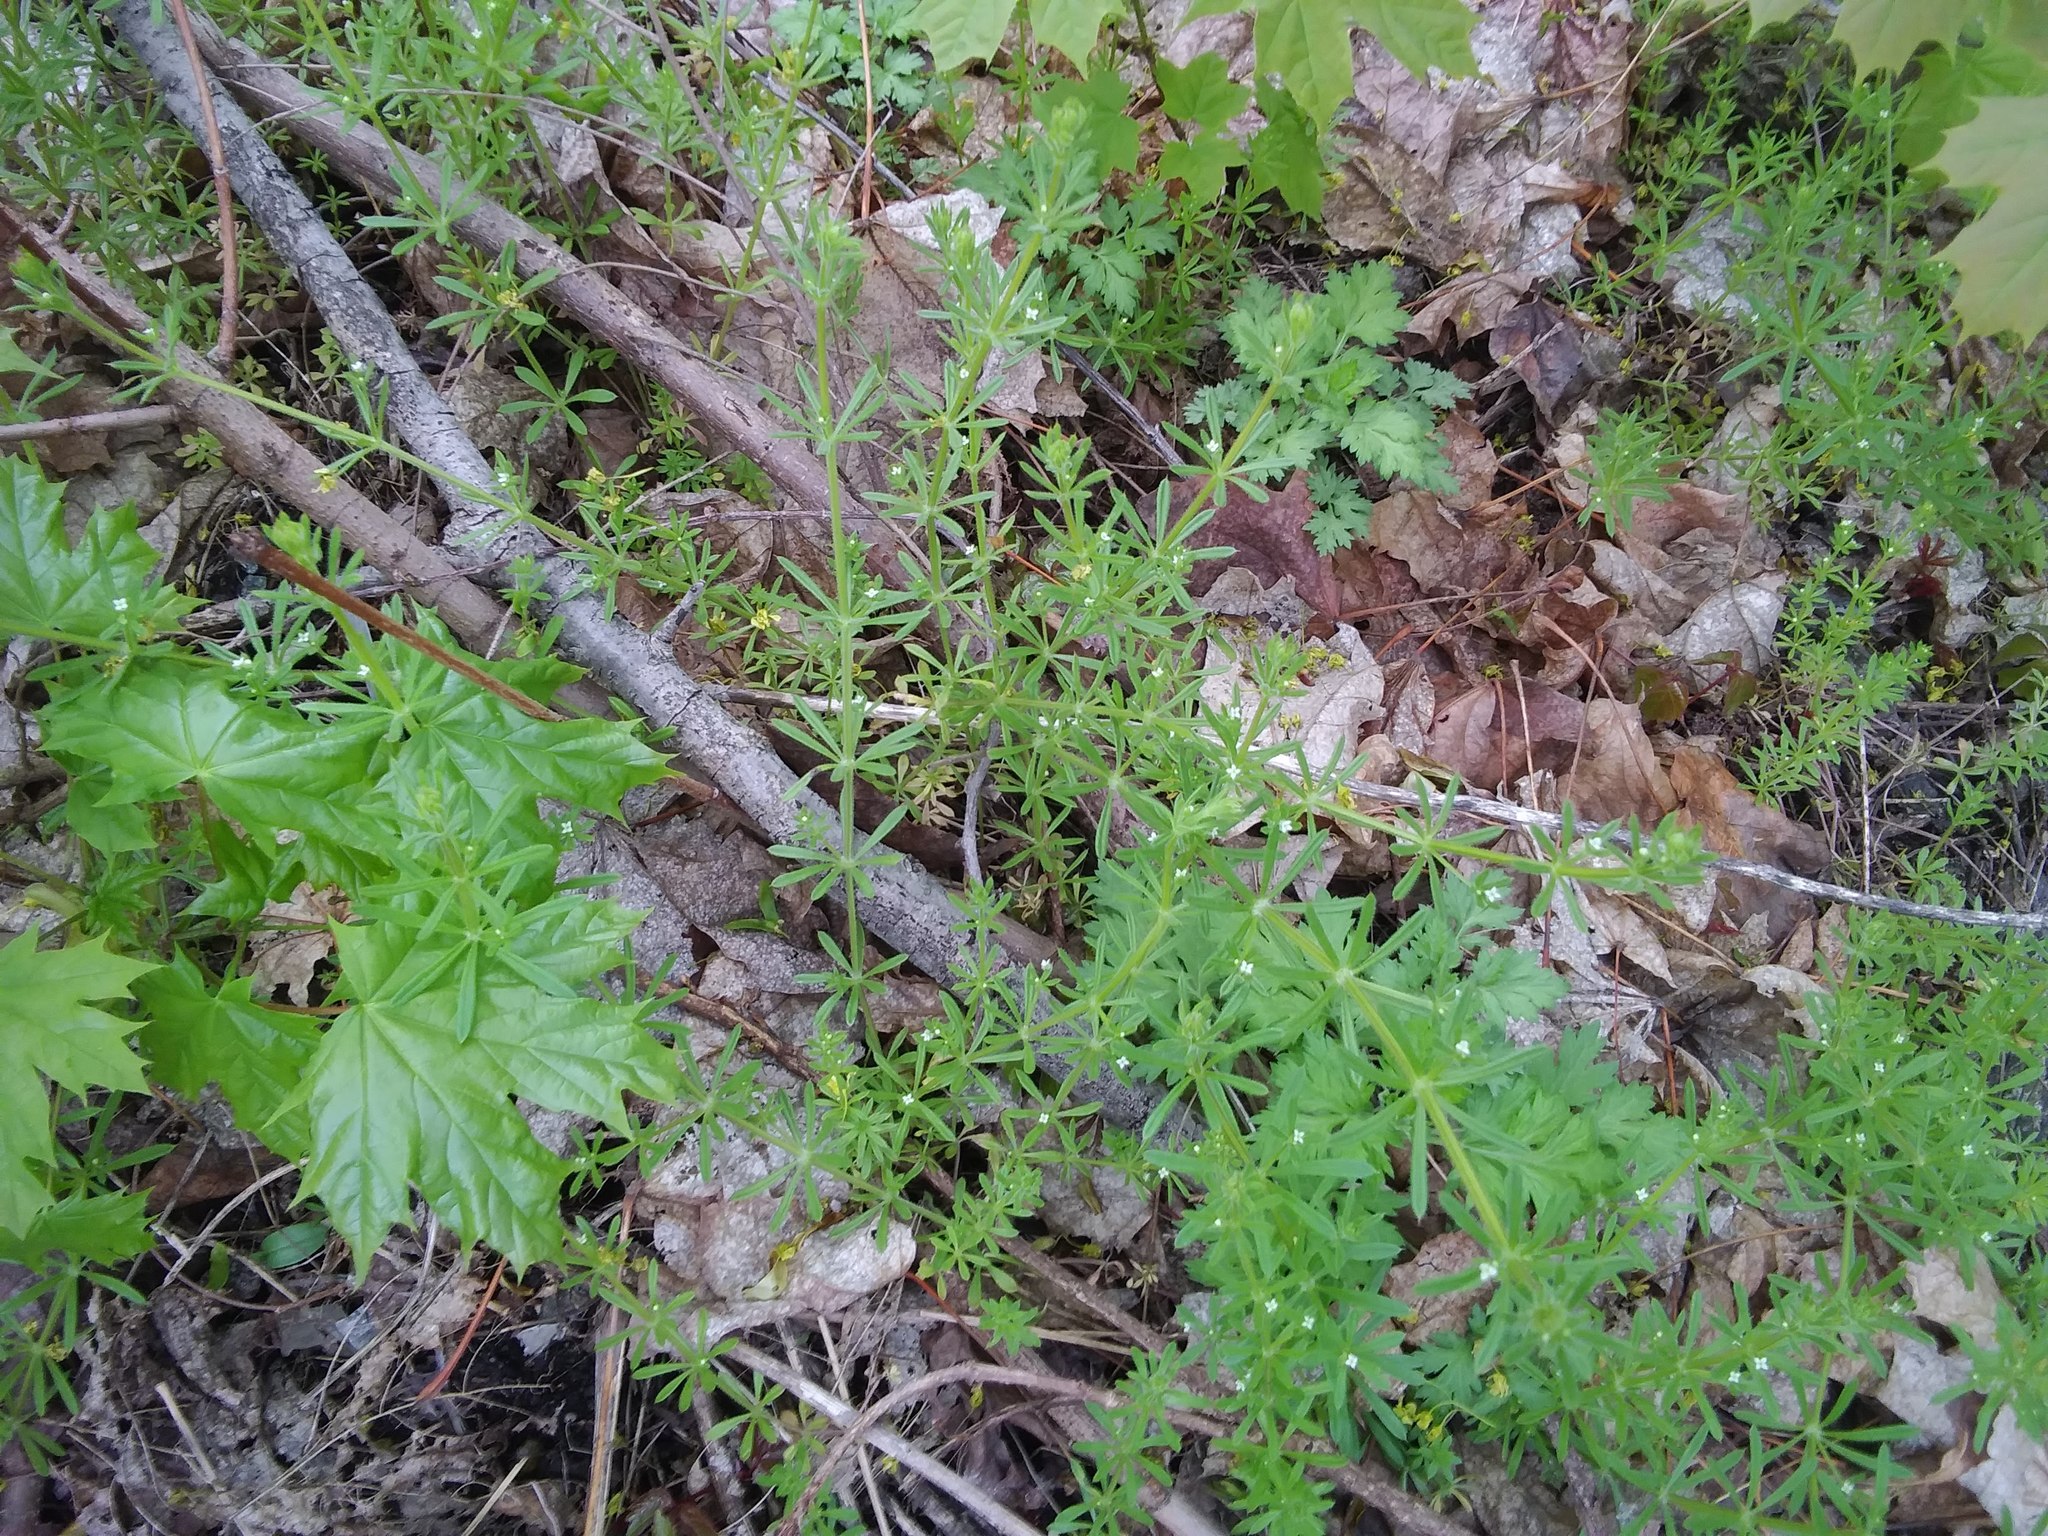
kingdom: Plantae
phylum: Tracheophyta
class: Magnoliopsida
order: Gentianales
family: Rubiaceae
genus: Galium
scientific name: Galium aparine
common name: Cleavers
